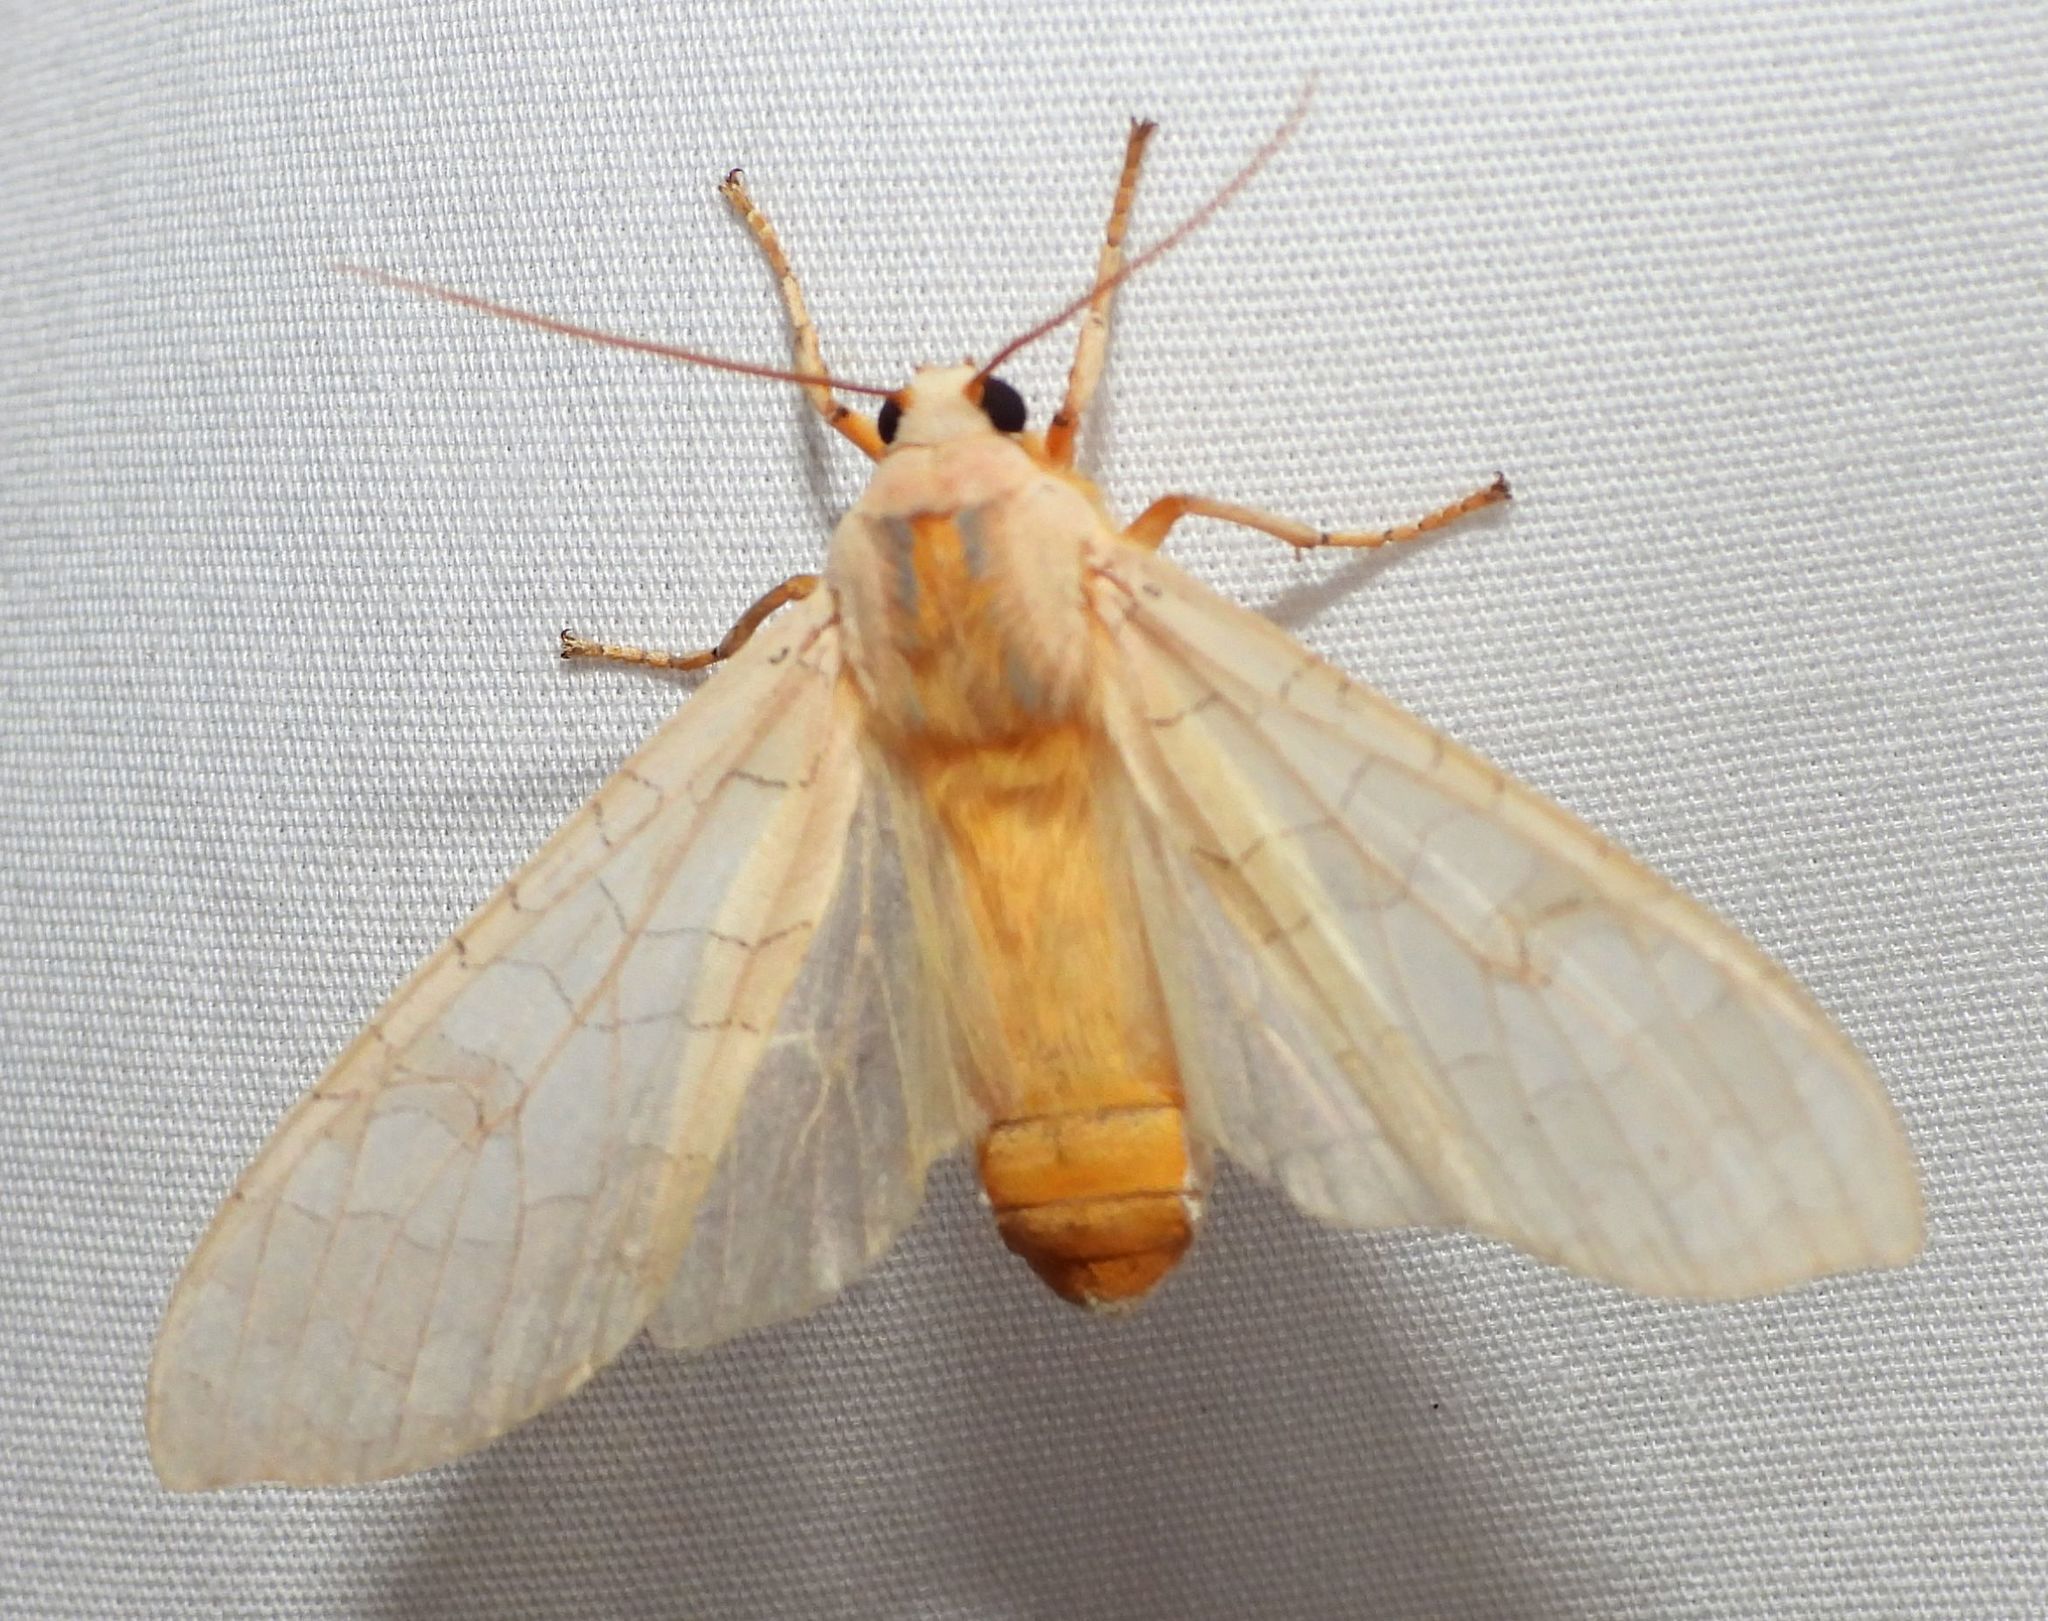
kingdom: Animalia
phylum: Arthropoda
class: Insecta
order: Lepidoptera
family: Erebidae
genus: Halysidota
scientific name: Halysidota tessellaris
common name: Banded tussock moth
